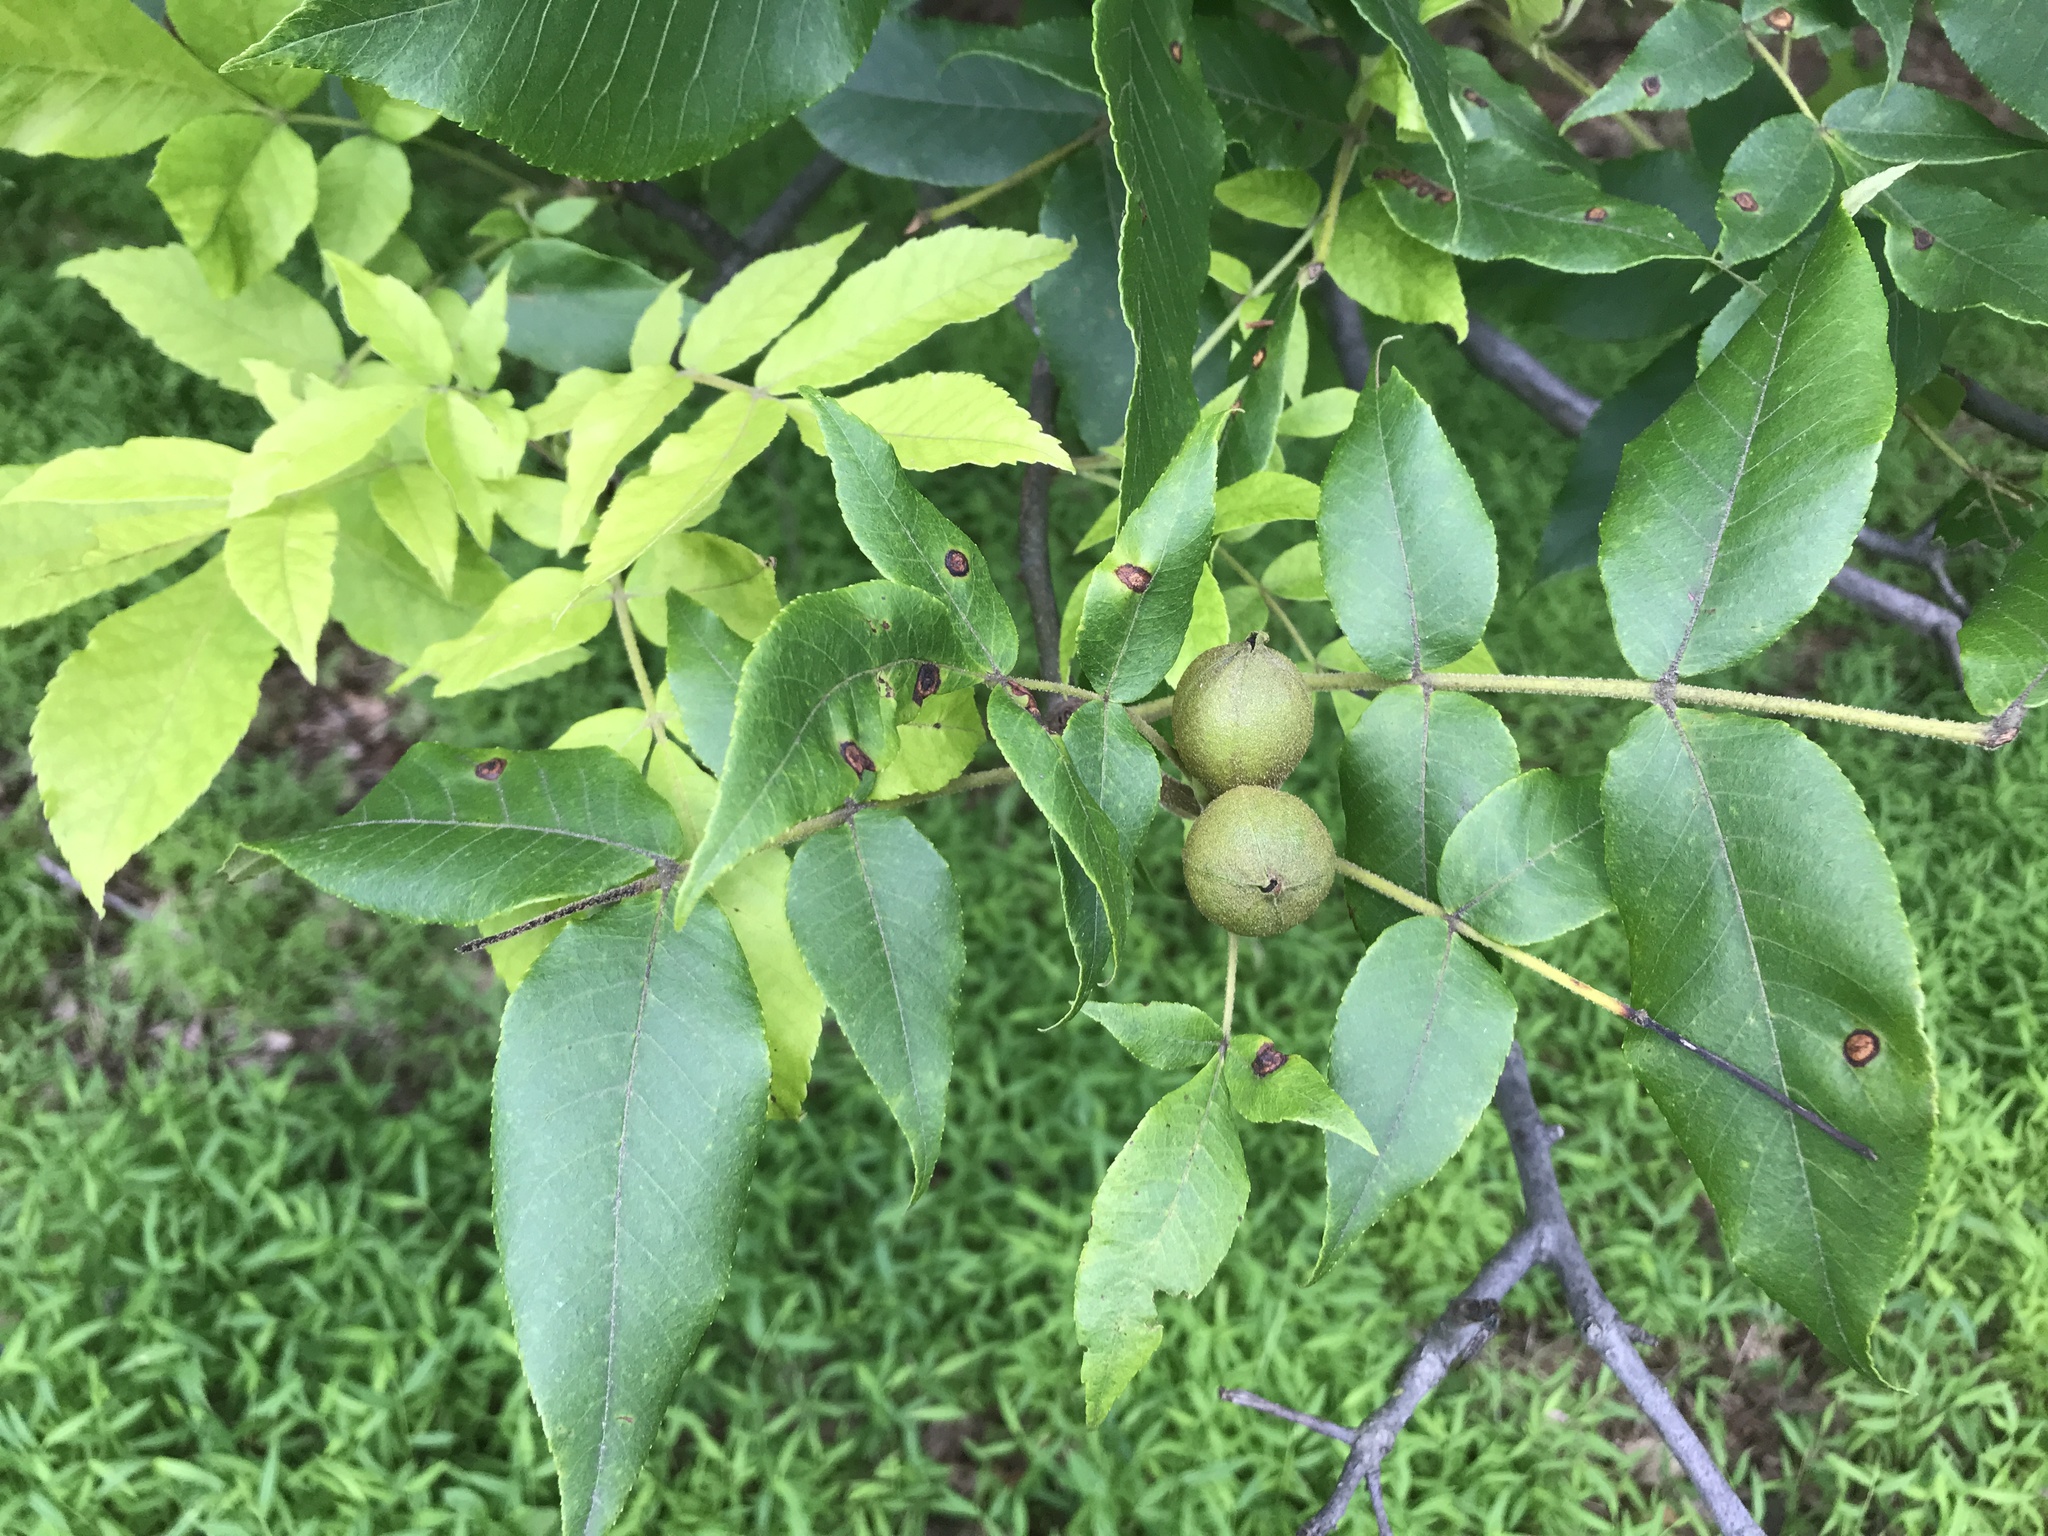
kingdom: Plantae
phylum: Tracheophyta
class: Magnoliopsida
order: Fagales
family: Juglandaceae
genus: Carya
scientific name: Carya cordiformis
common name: Bitternut hickory
